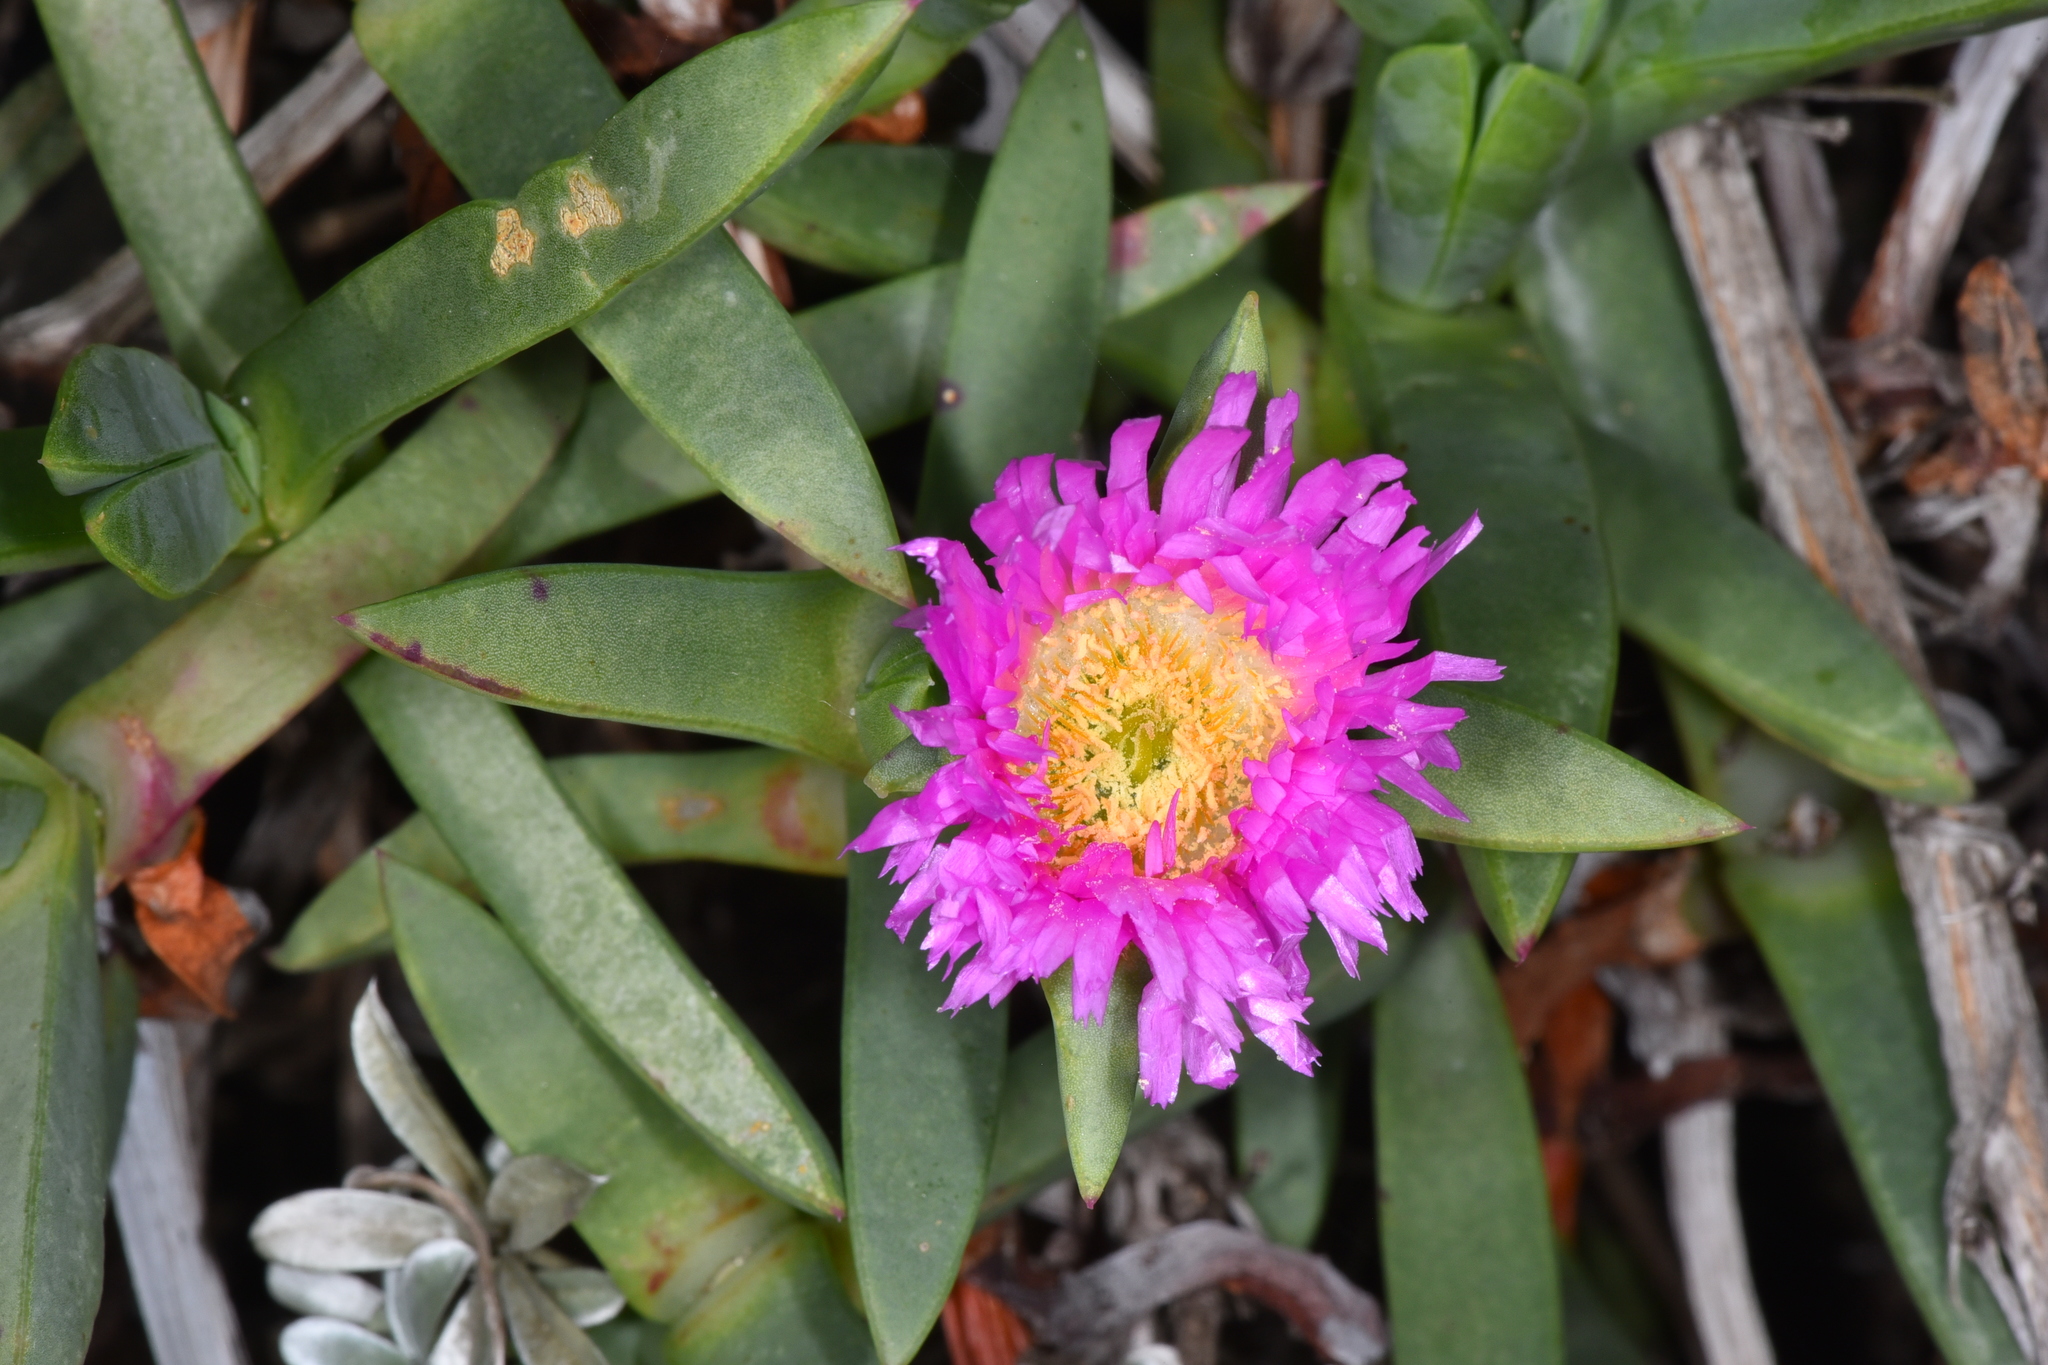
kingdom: Plantae
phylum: Tracheophyta
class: Magnoliopsida
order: Caryophyllales
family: Aizoaceae
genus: Carpobrotus
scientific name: Carpobrotus chilensis
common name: Sea fig
